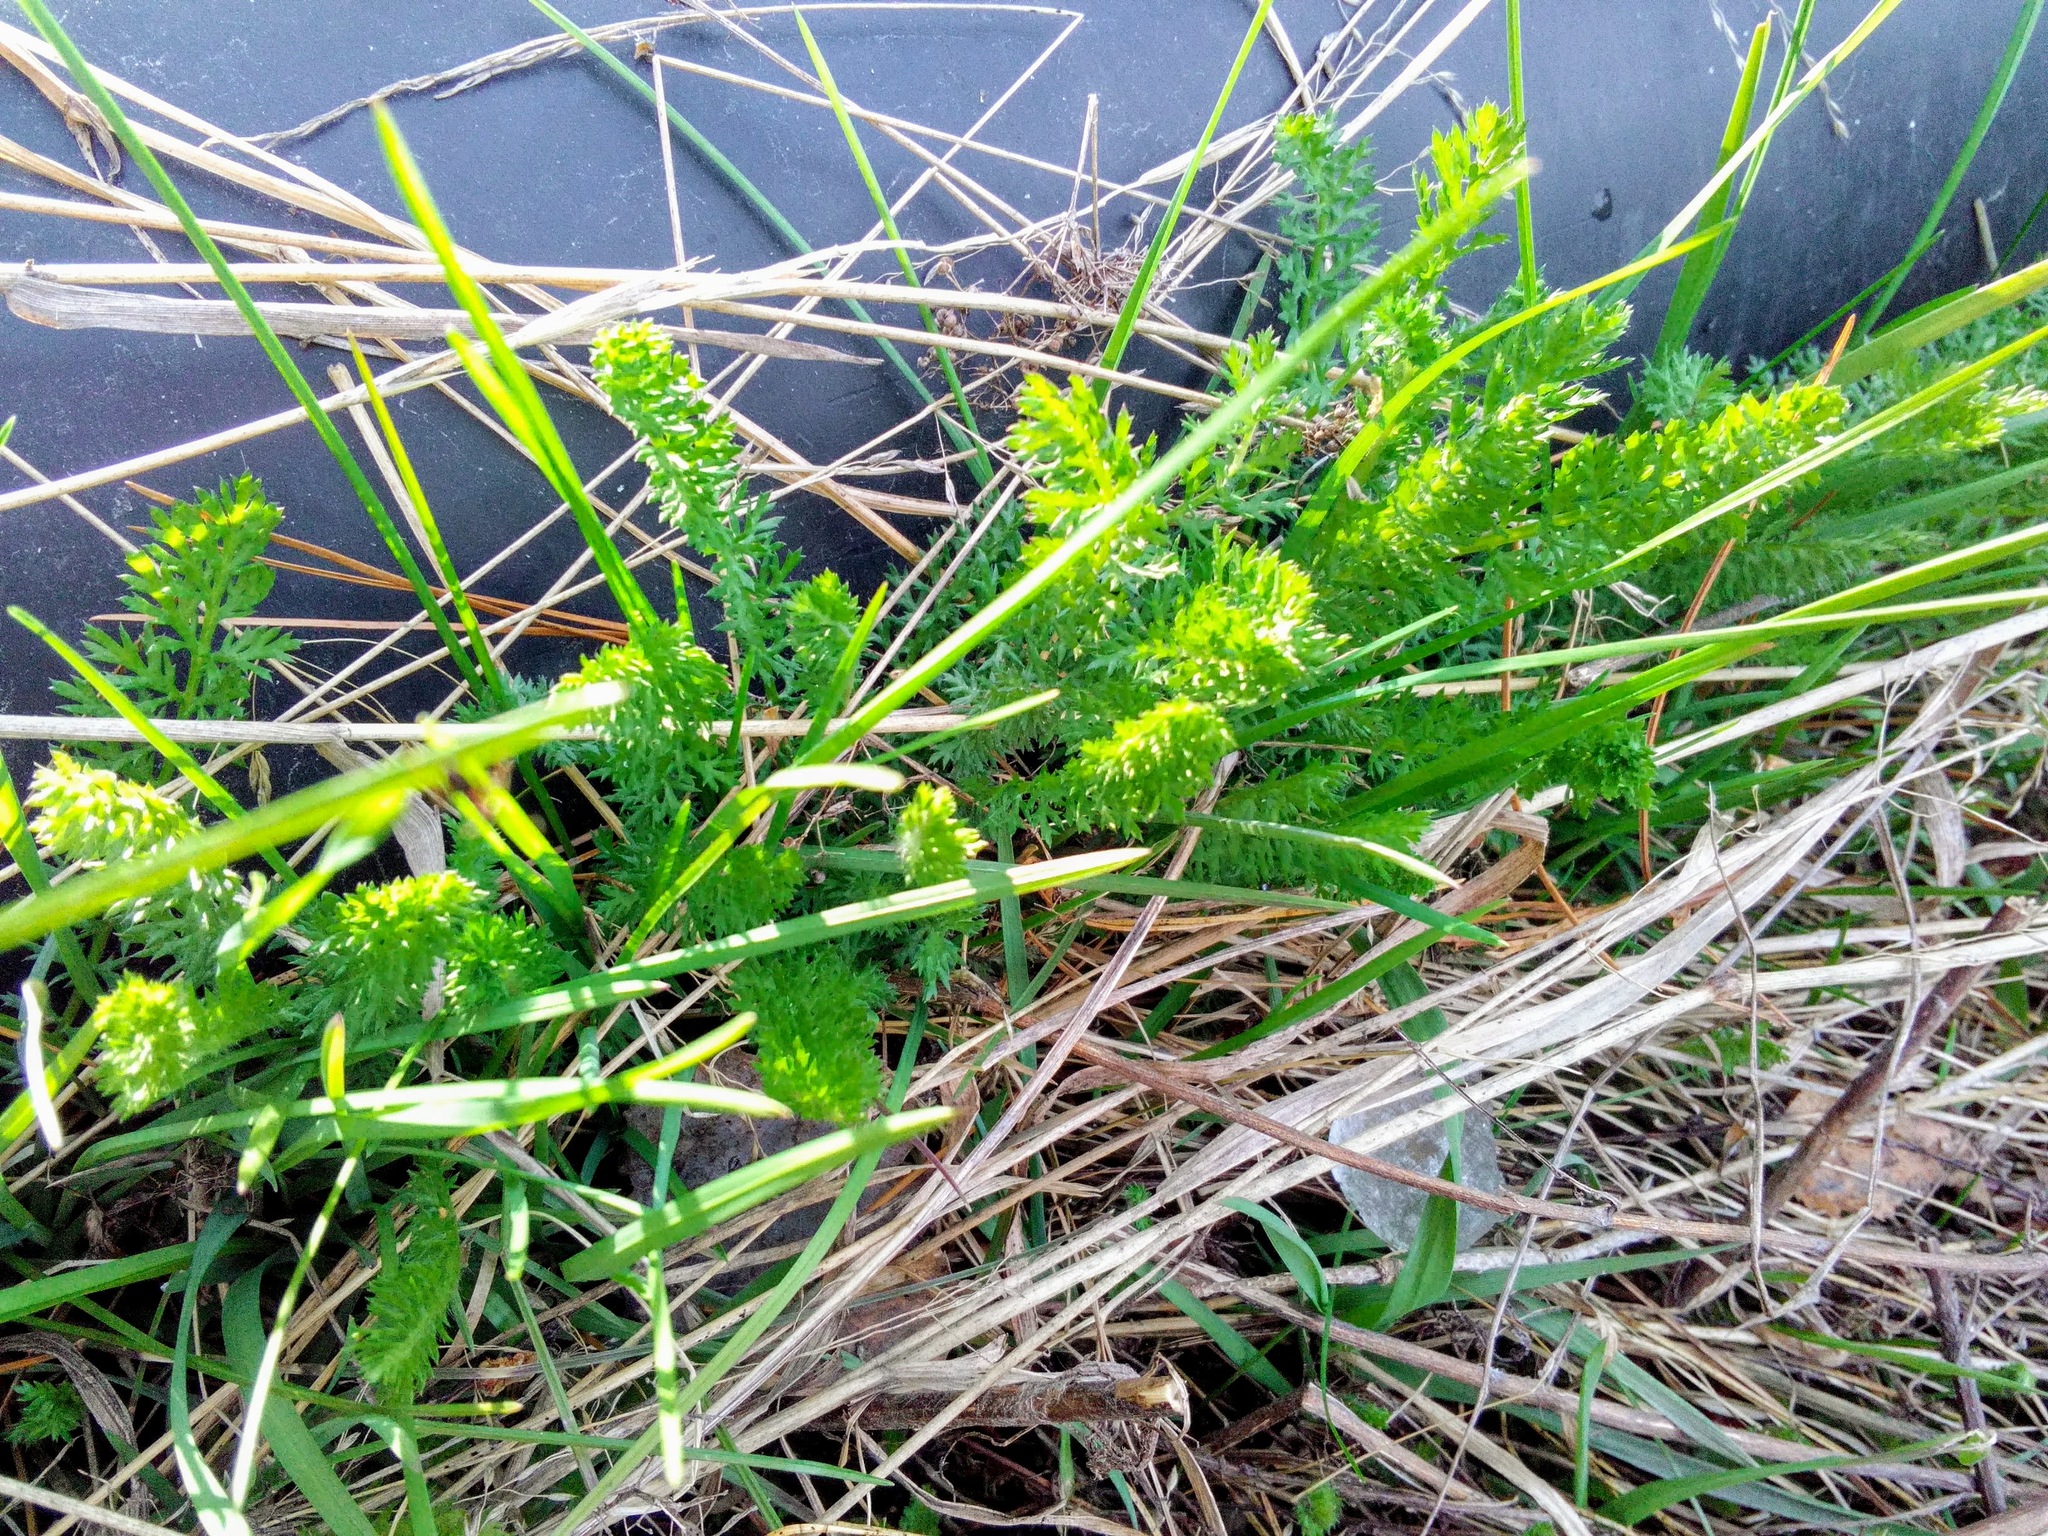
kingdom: Plantae
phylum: Tracheophyta
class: Magnoliopsida
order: Asterales
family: Asteraceae
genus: Achillea
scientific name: Achillea millefolium
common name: Yarrow
